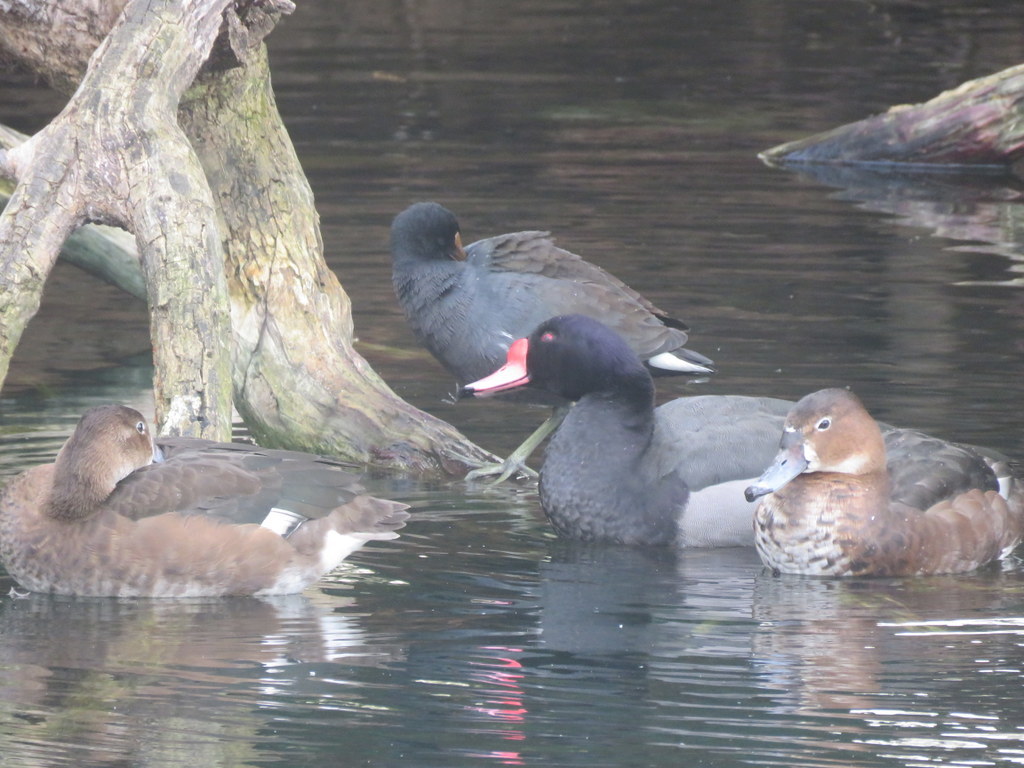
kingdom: Animalia
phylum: Chordata
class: Aves
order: Anseriformes
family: Anatidae
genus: Netta
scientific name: Netta peposaca
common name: Rosy-billed pochard
